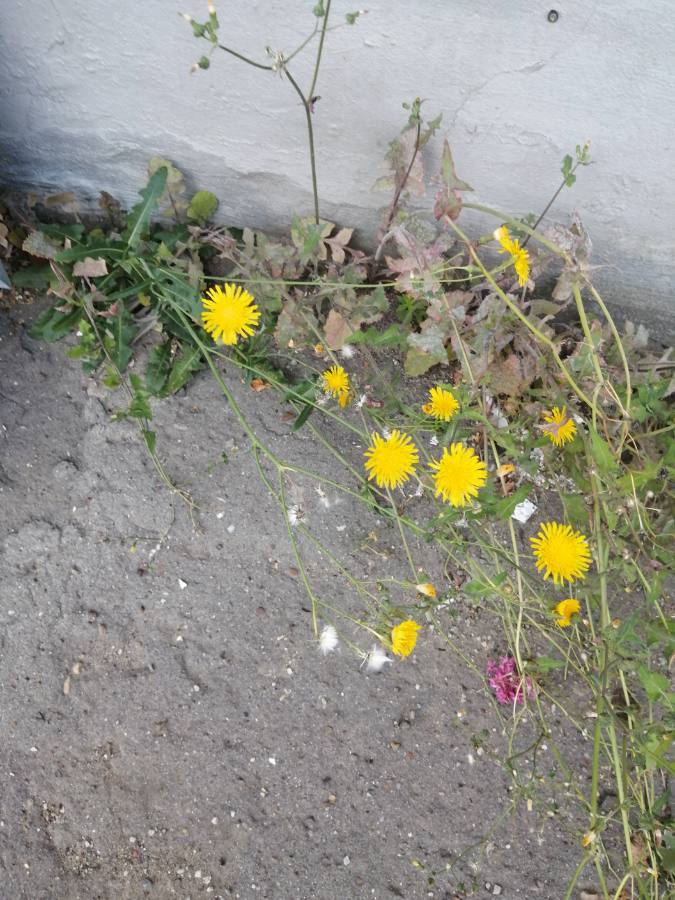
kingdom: Plantae
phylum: Tracheophyta
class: Magnoliopsida
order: Asterales
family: Asteraceae
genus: Sonchus
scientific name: Sonchus arvensis
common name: Perennial sow-thistle
